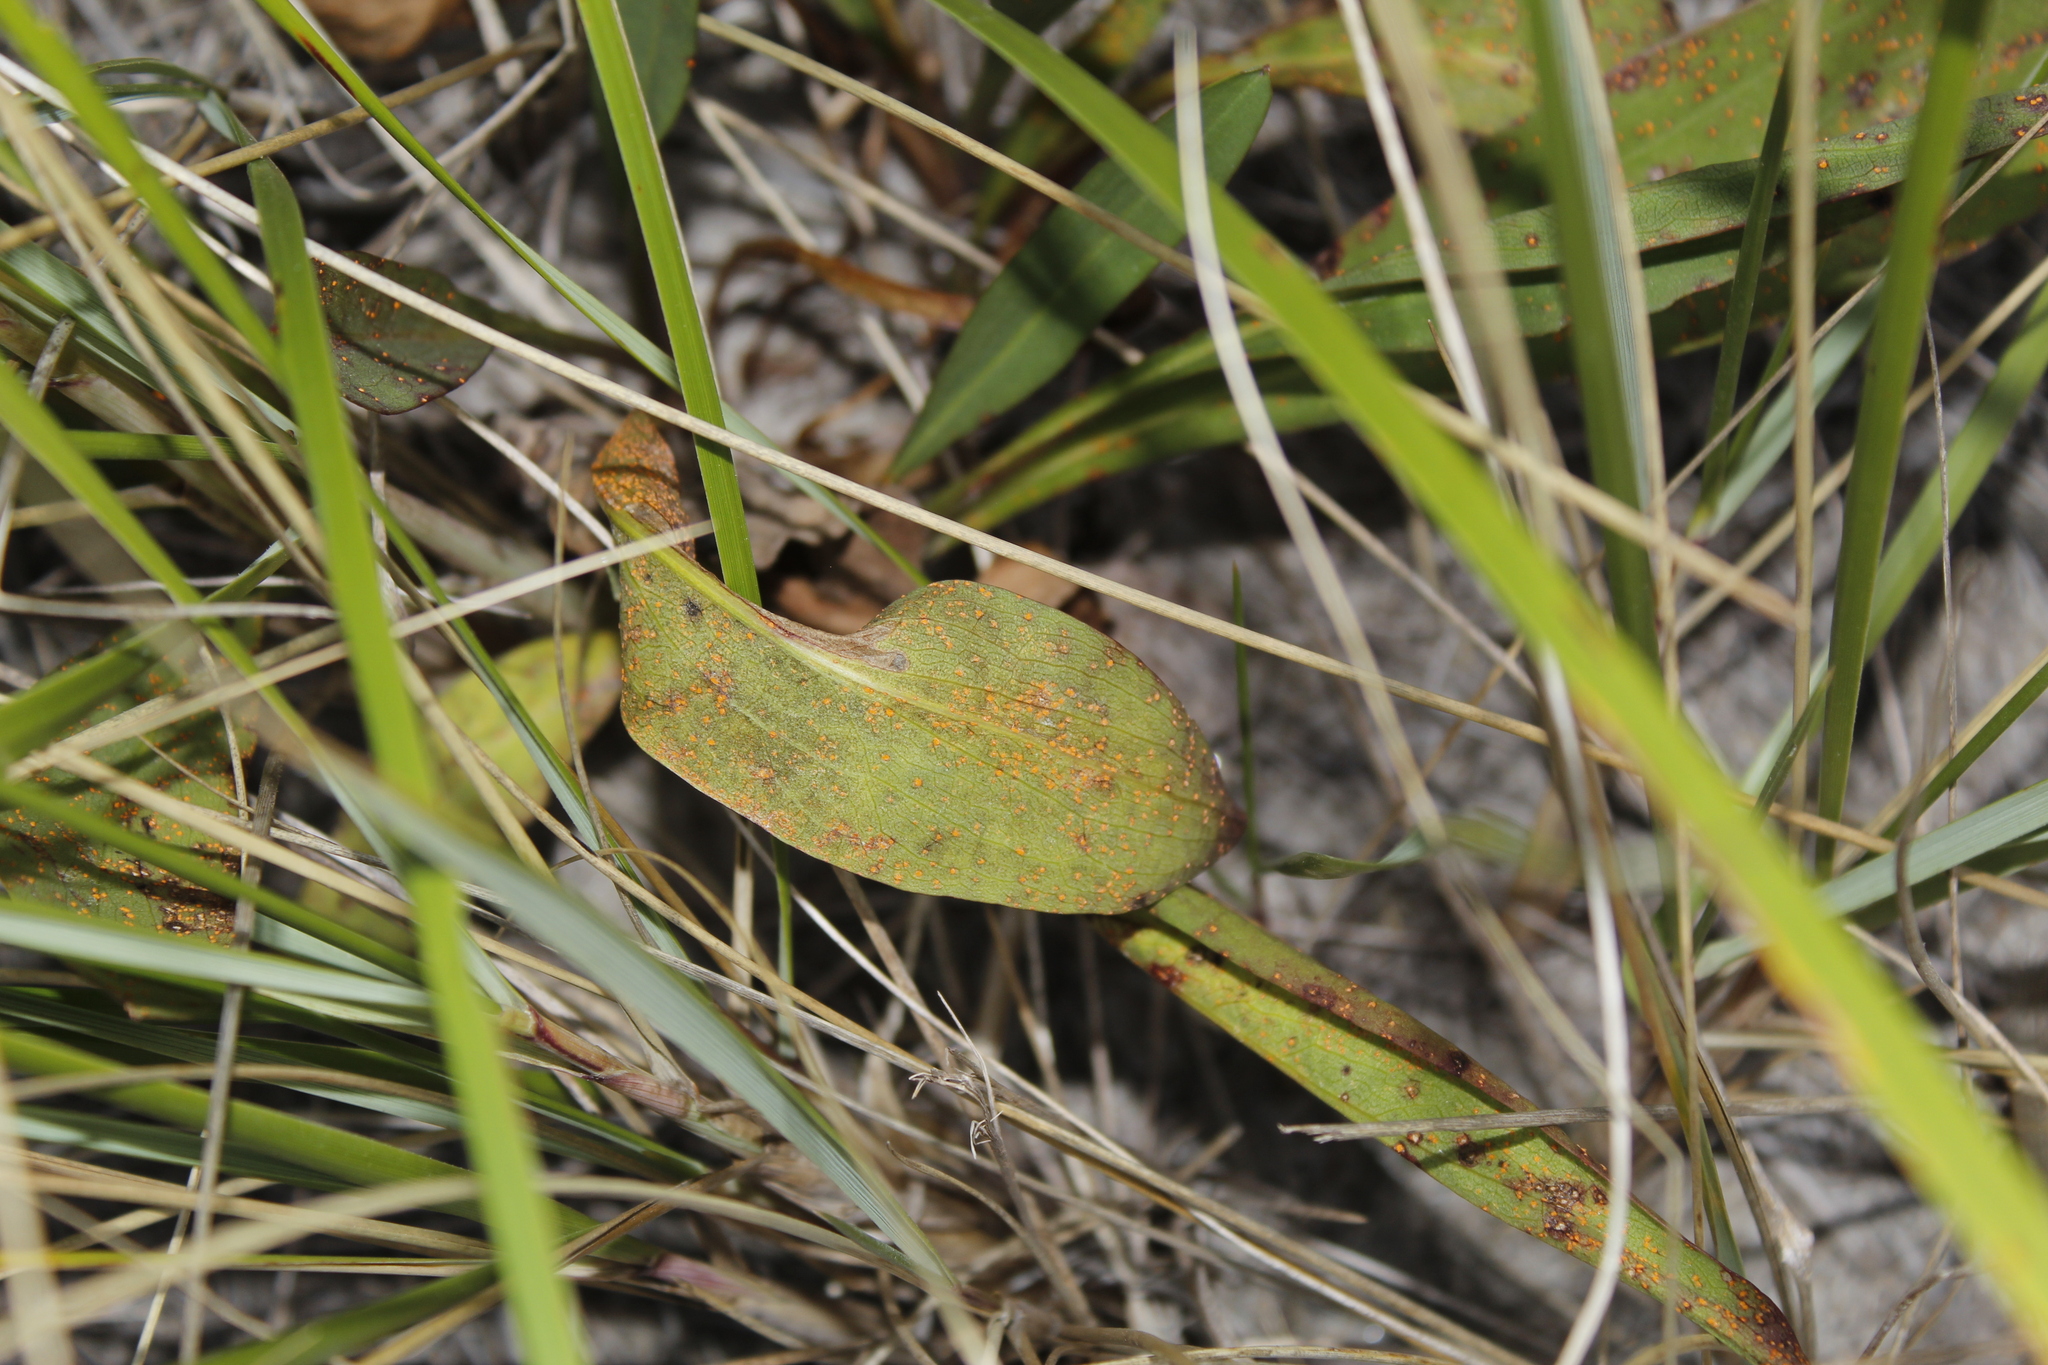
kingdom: Plantae
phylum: Tracheophyta
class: Magnoliopsida
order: Asterales
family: Asteraceae
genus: Solidago
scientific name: Solidago sempervirens
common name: Salt-marsh goldenrod
